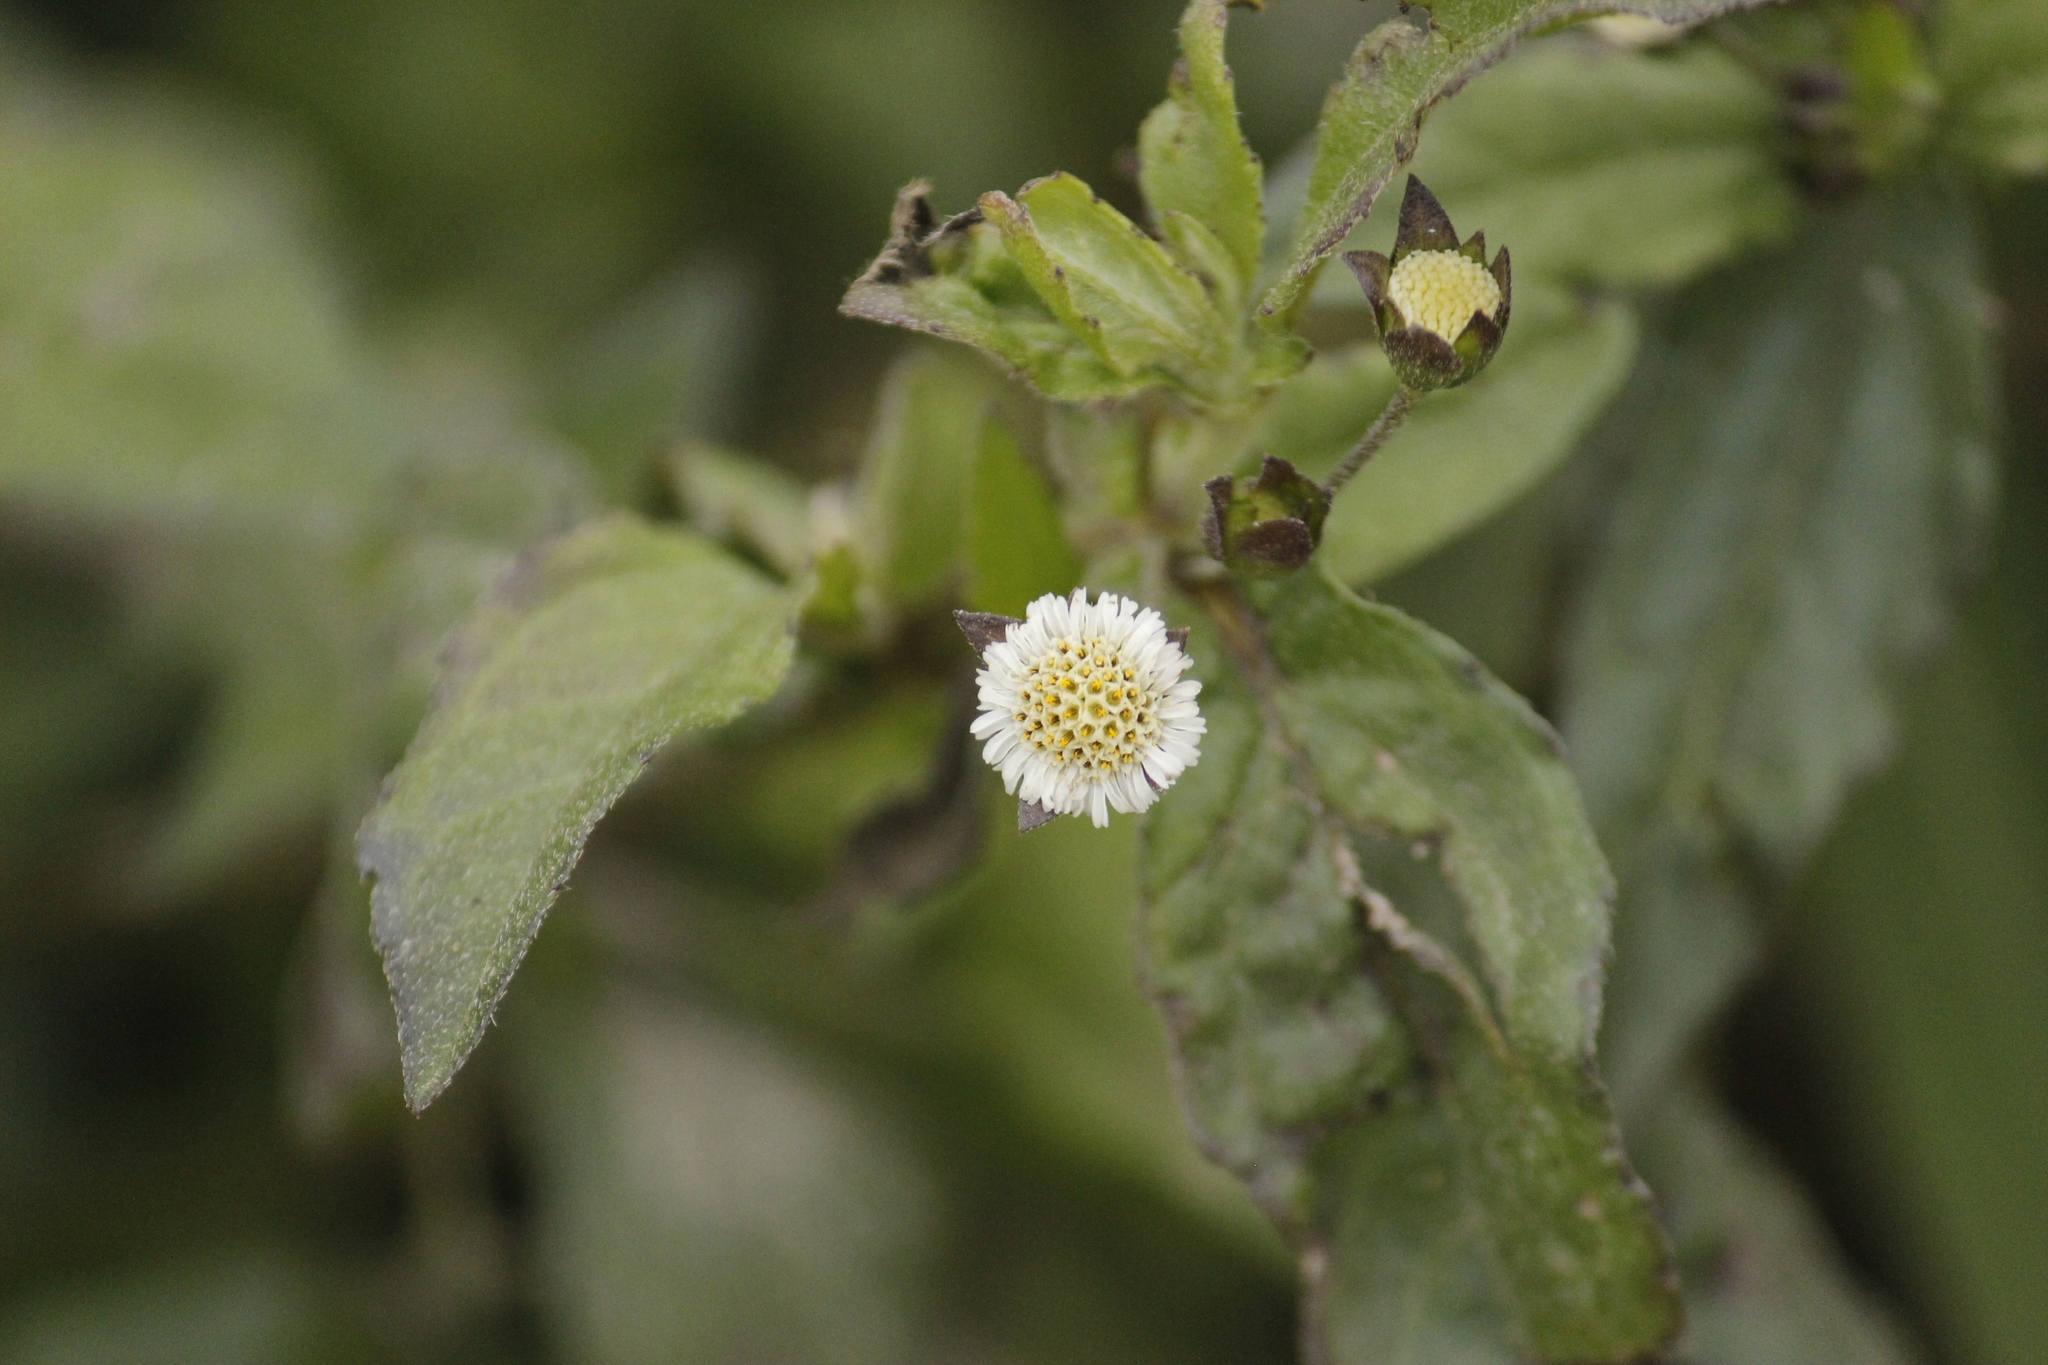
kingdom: Plantae
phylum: Tracheophyta
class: Magnoliopsida
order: Asterales
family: Asteraceae
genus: Eclipta
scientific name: Eclipta prostrata
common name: False daisy
